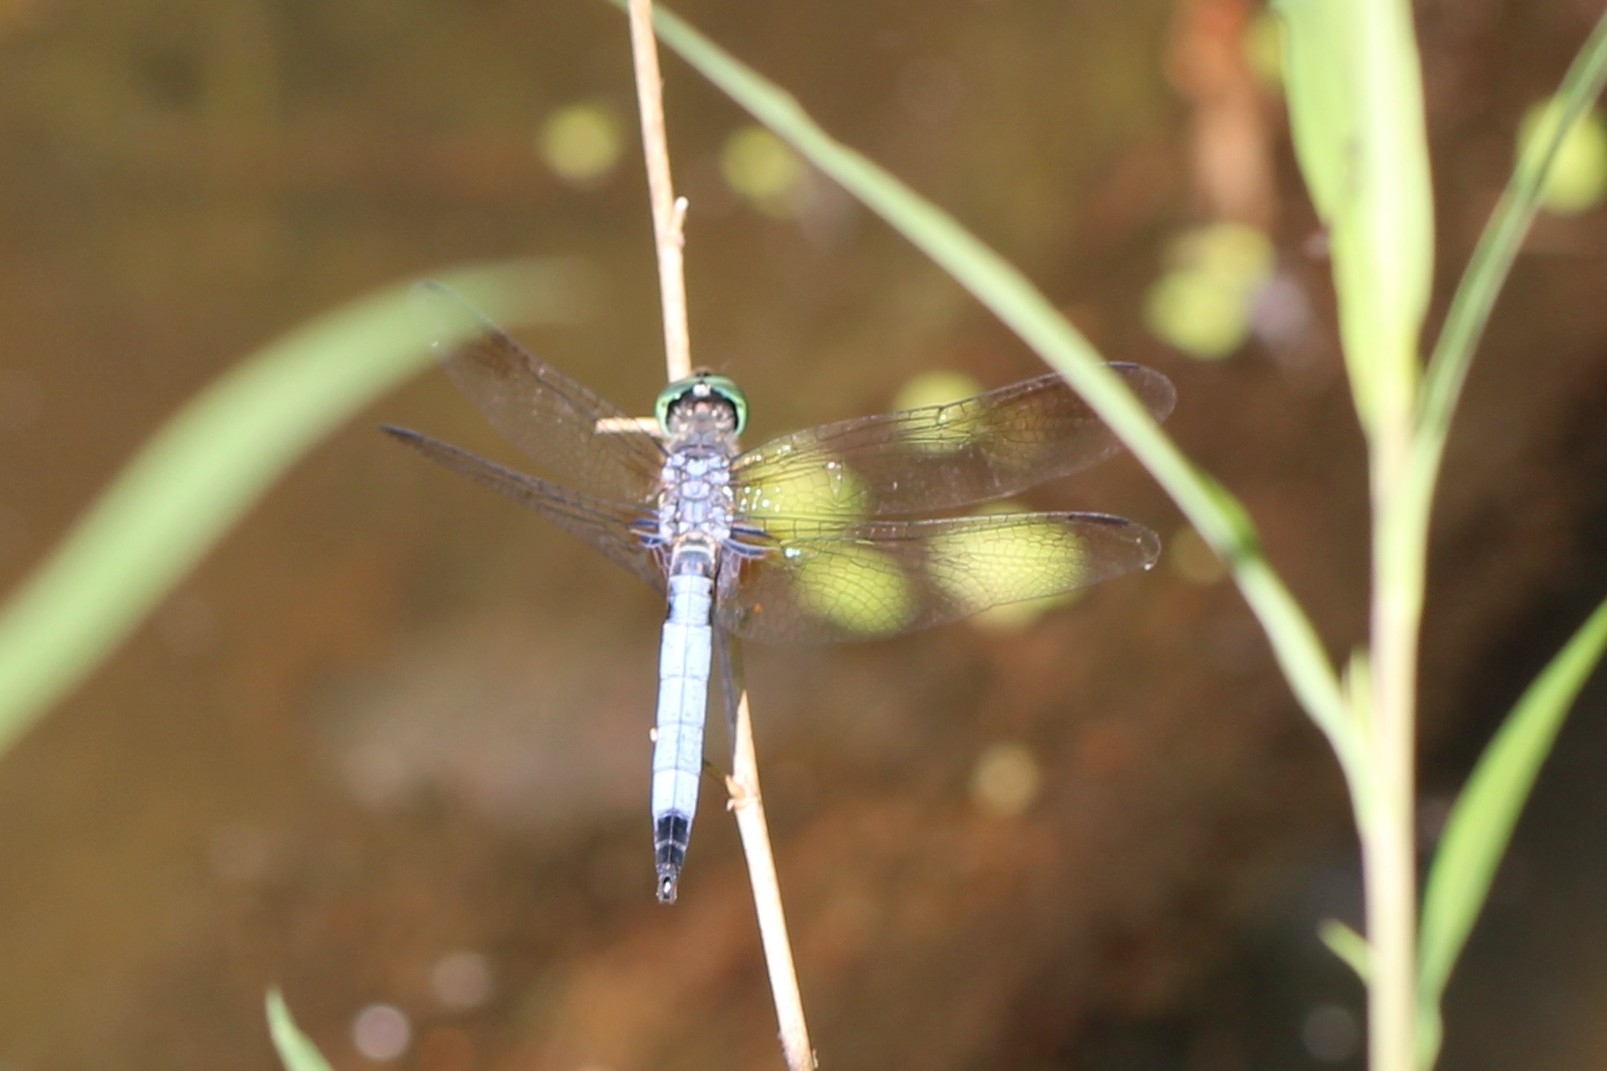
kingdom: Animalia
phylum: Arthropoda
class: Insecta
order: Odonata
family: Libellulidae
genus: Pachydiplax
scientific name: Pachydiplax longipennis
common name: Blue dasher
